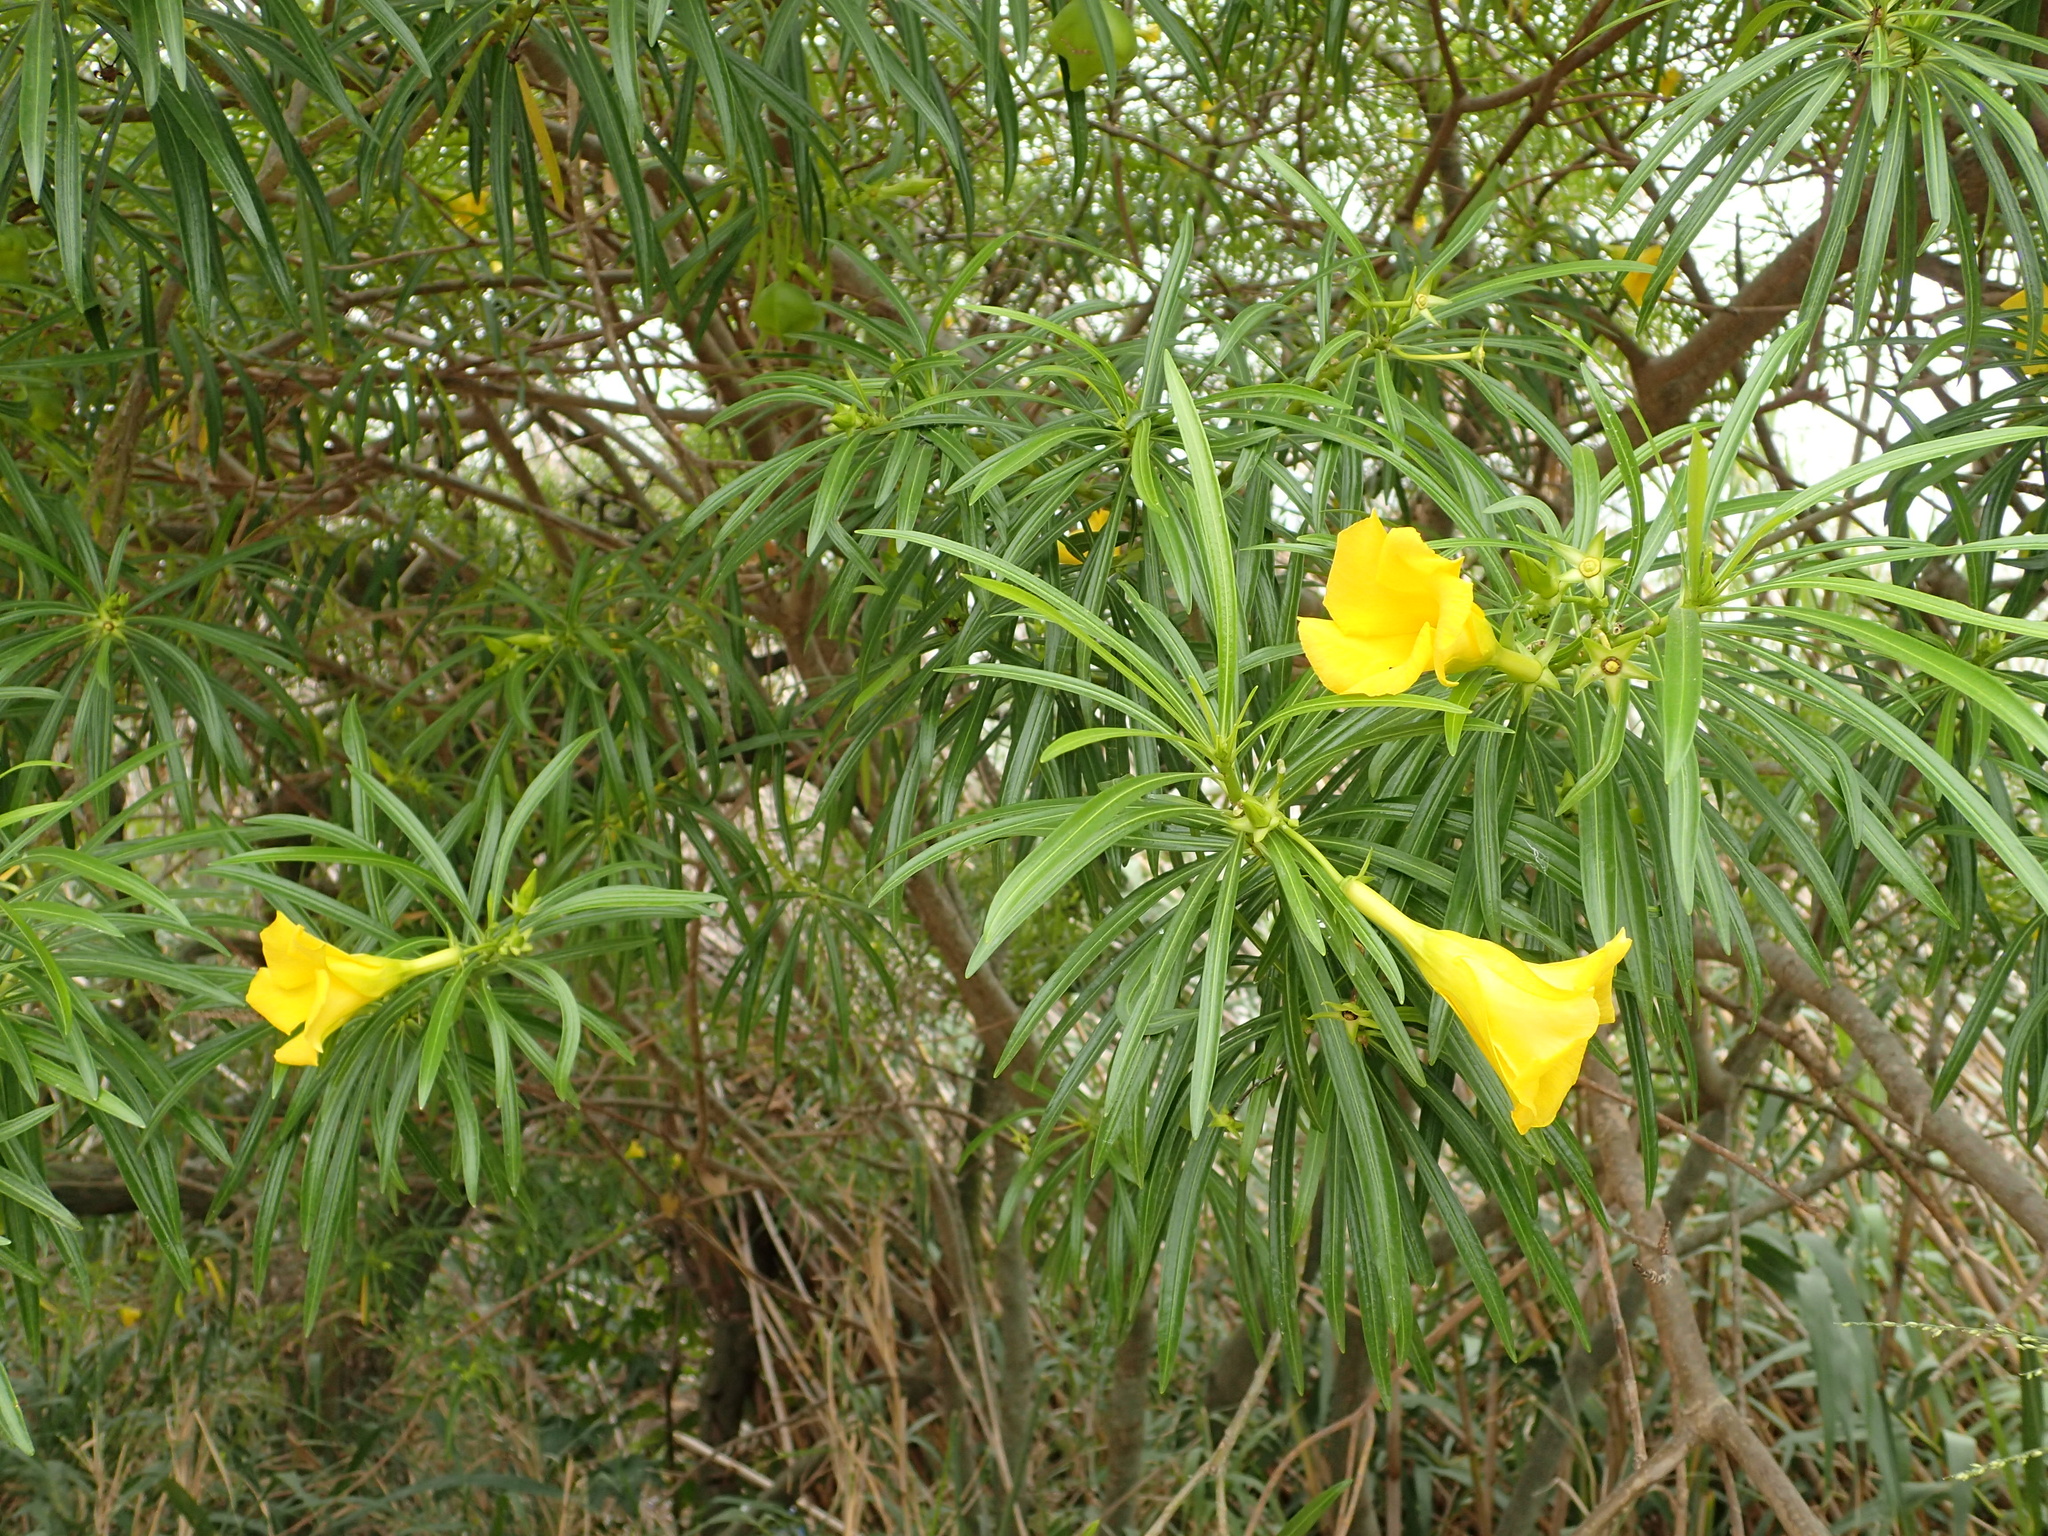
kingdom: Plantae
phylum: Tracheophyta
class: Magnoliopsida
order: Gentianales
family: Apocynaceae
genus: Cascabela
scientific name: Cascabela thevetia
